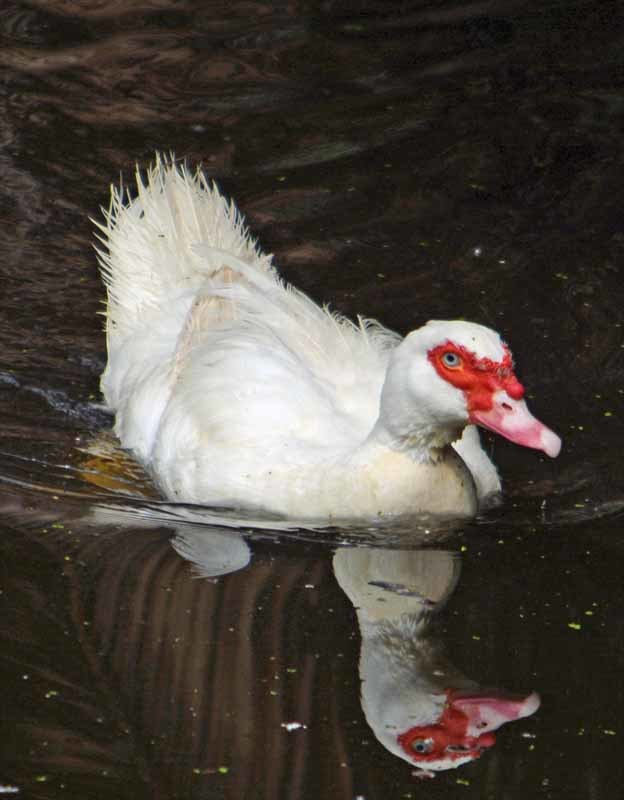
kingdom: Animalia
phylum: Chordata
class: Aves
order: Anseriformes
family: Anatidae
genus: Cairina
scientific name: Cairina moschata
